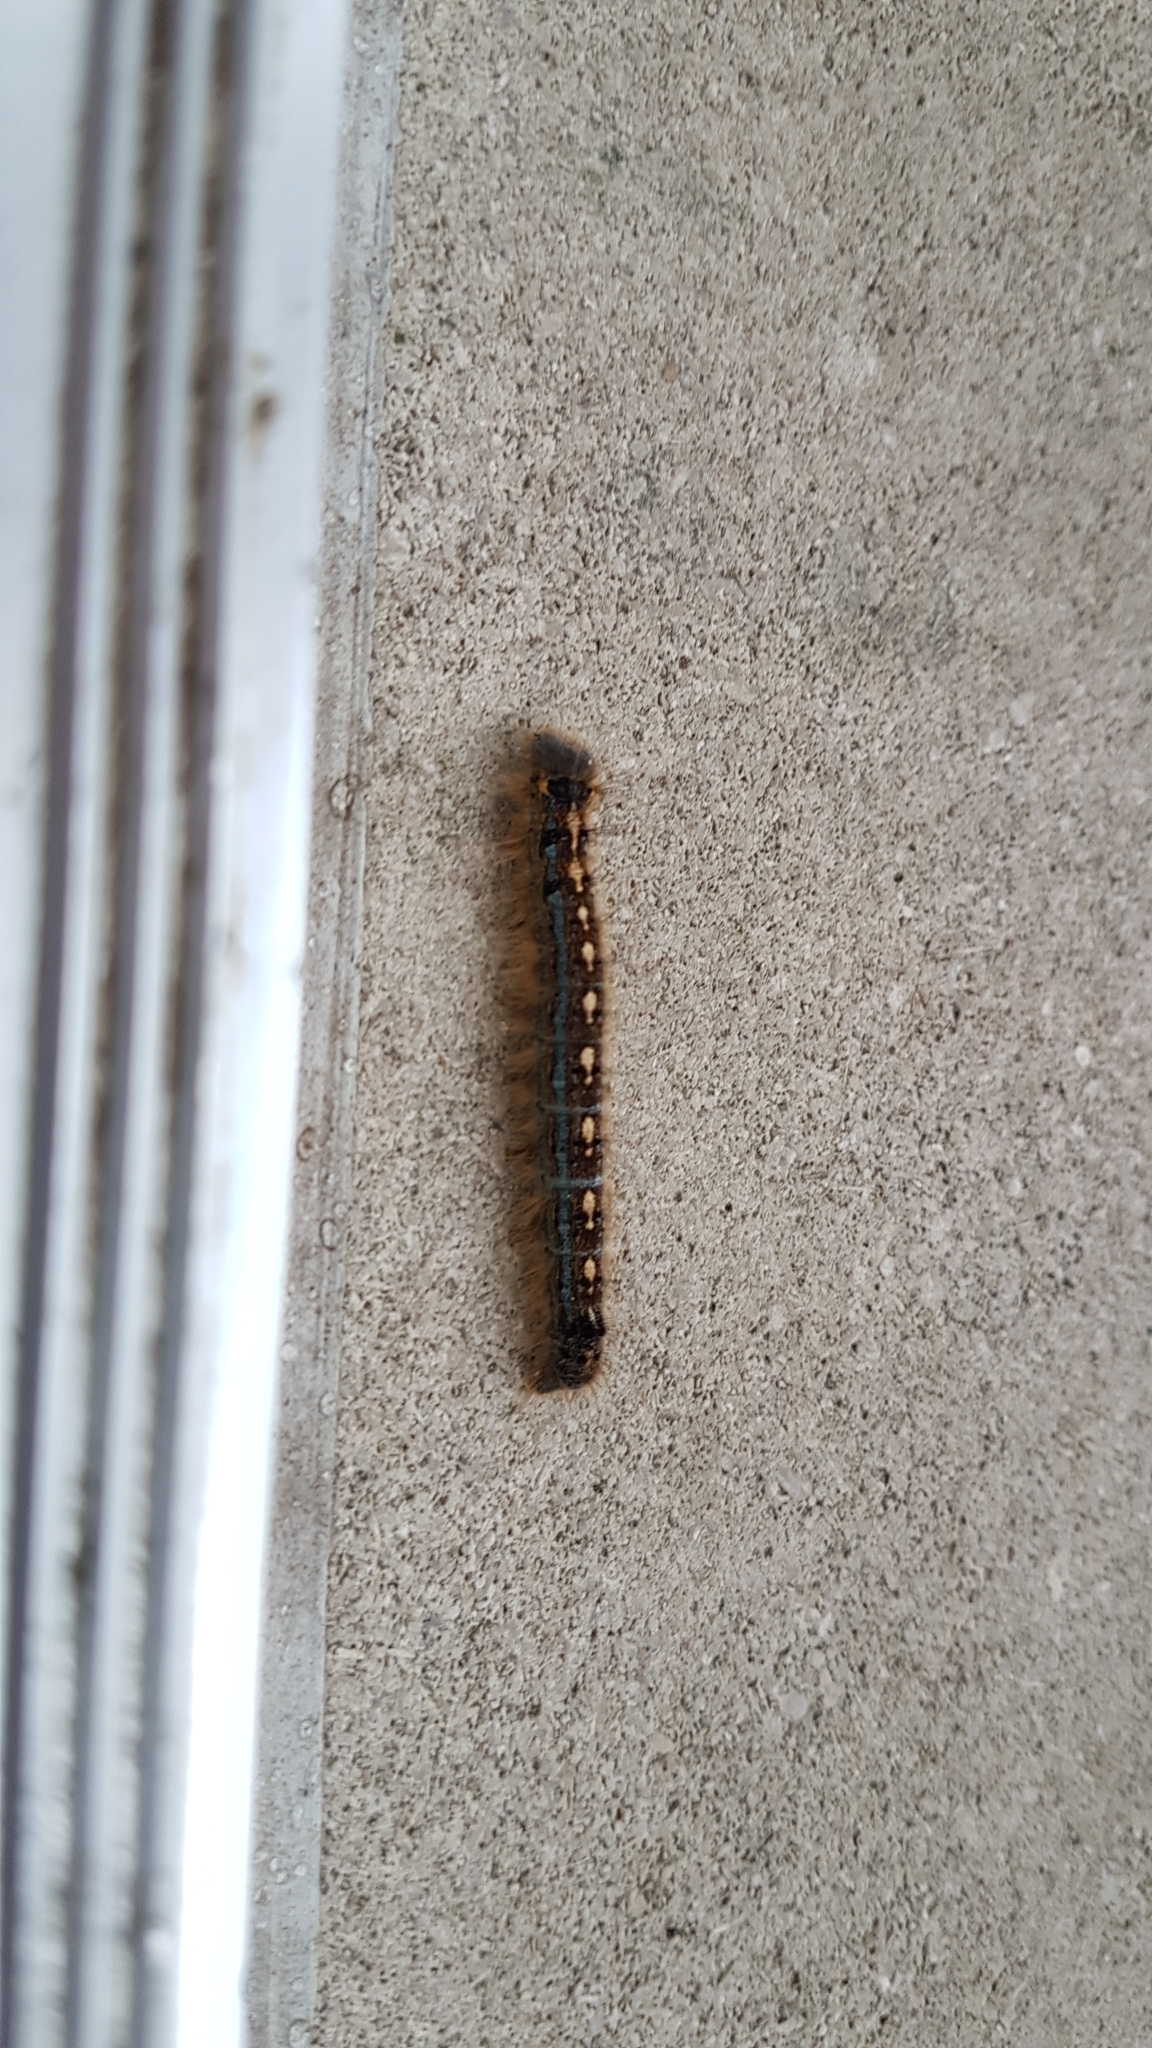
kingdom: Animalia
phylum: Arthropoda
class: Insecta
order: Lepidoptera
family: Lasiocampidae
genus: Malacosoma
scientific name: Malacosoma disstria
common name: Forest tent caterpillar
